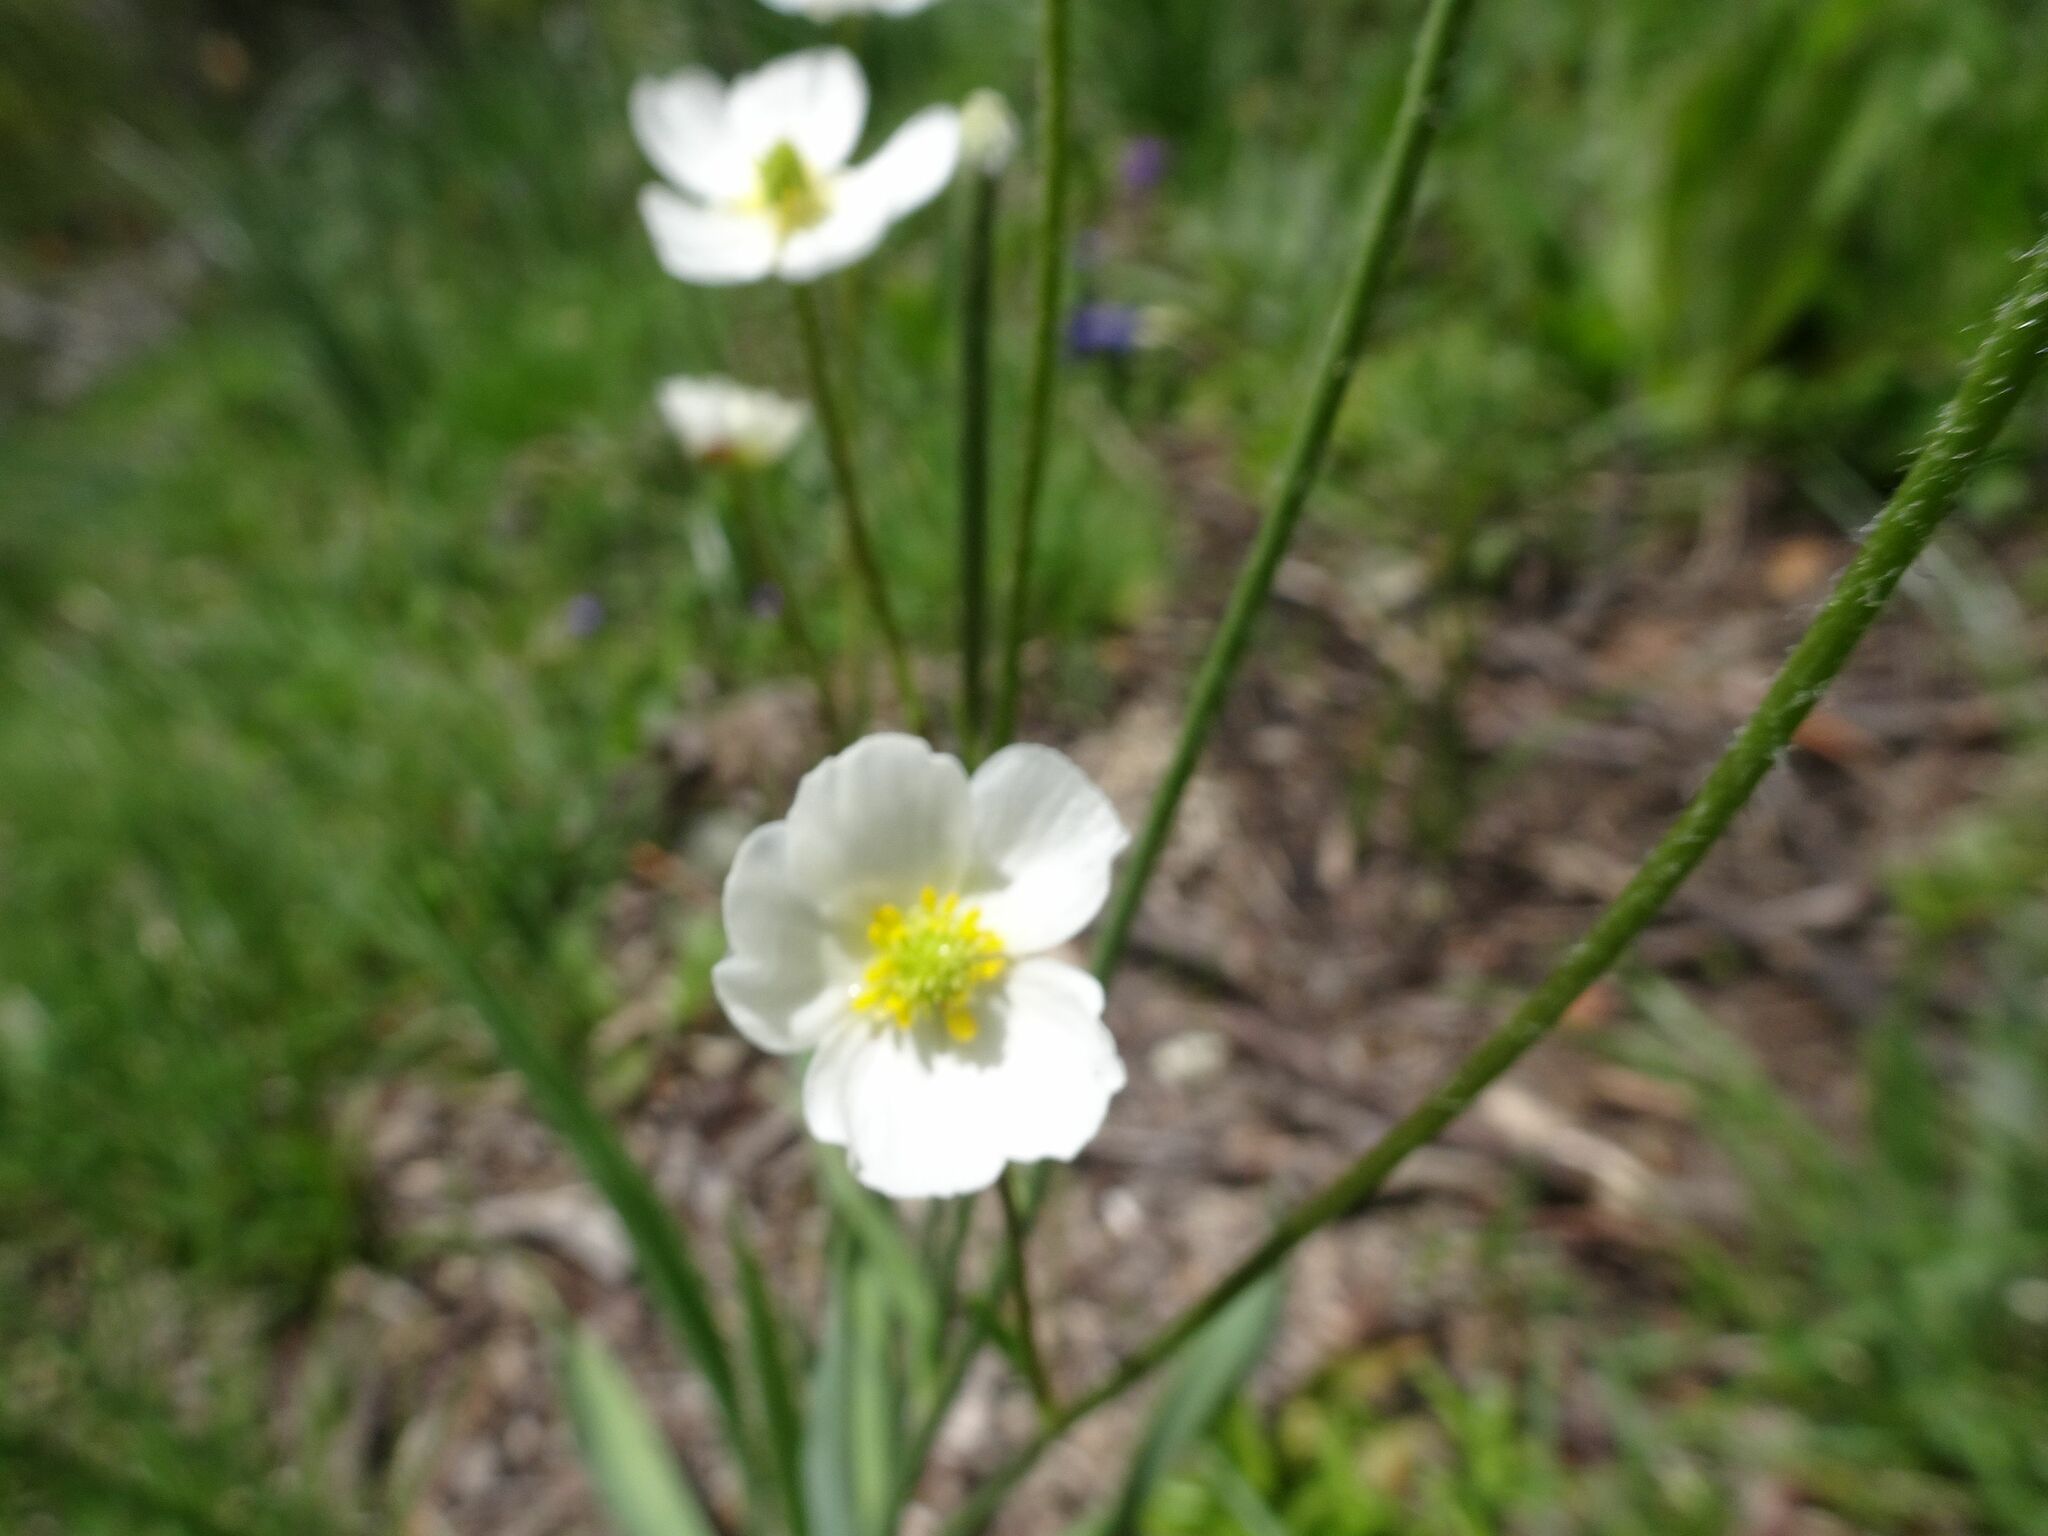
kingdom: Plantae
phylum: Tracheophyta
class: Magnoliopsida
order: Ranunculales
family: Ranunculaceae
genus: Ranunculus
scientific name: Ranunculus kuepferi
